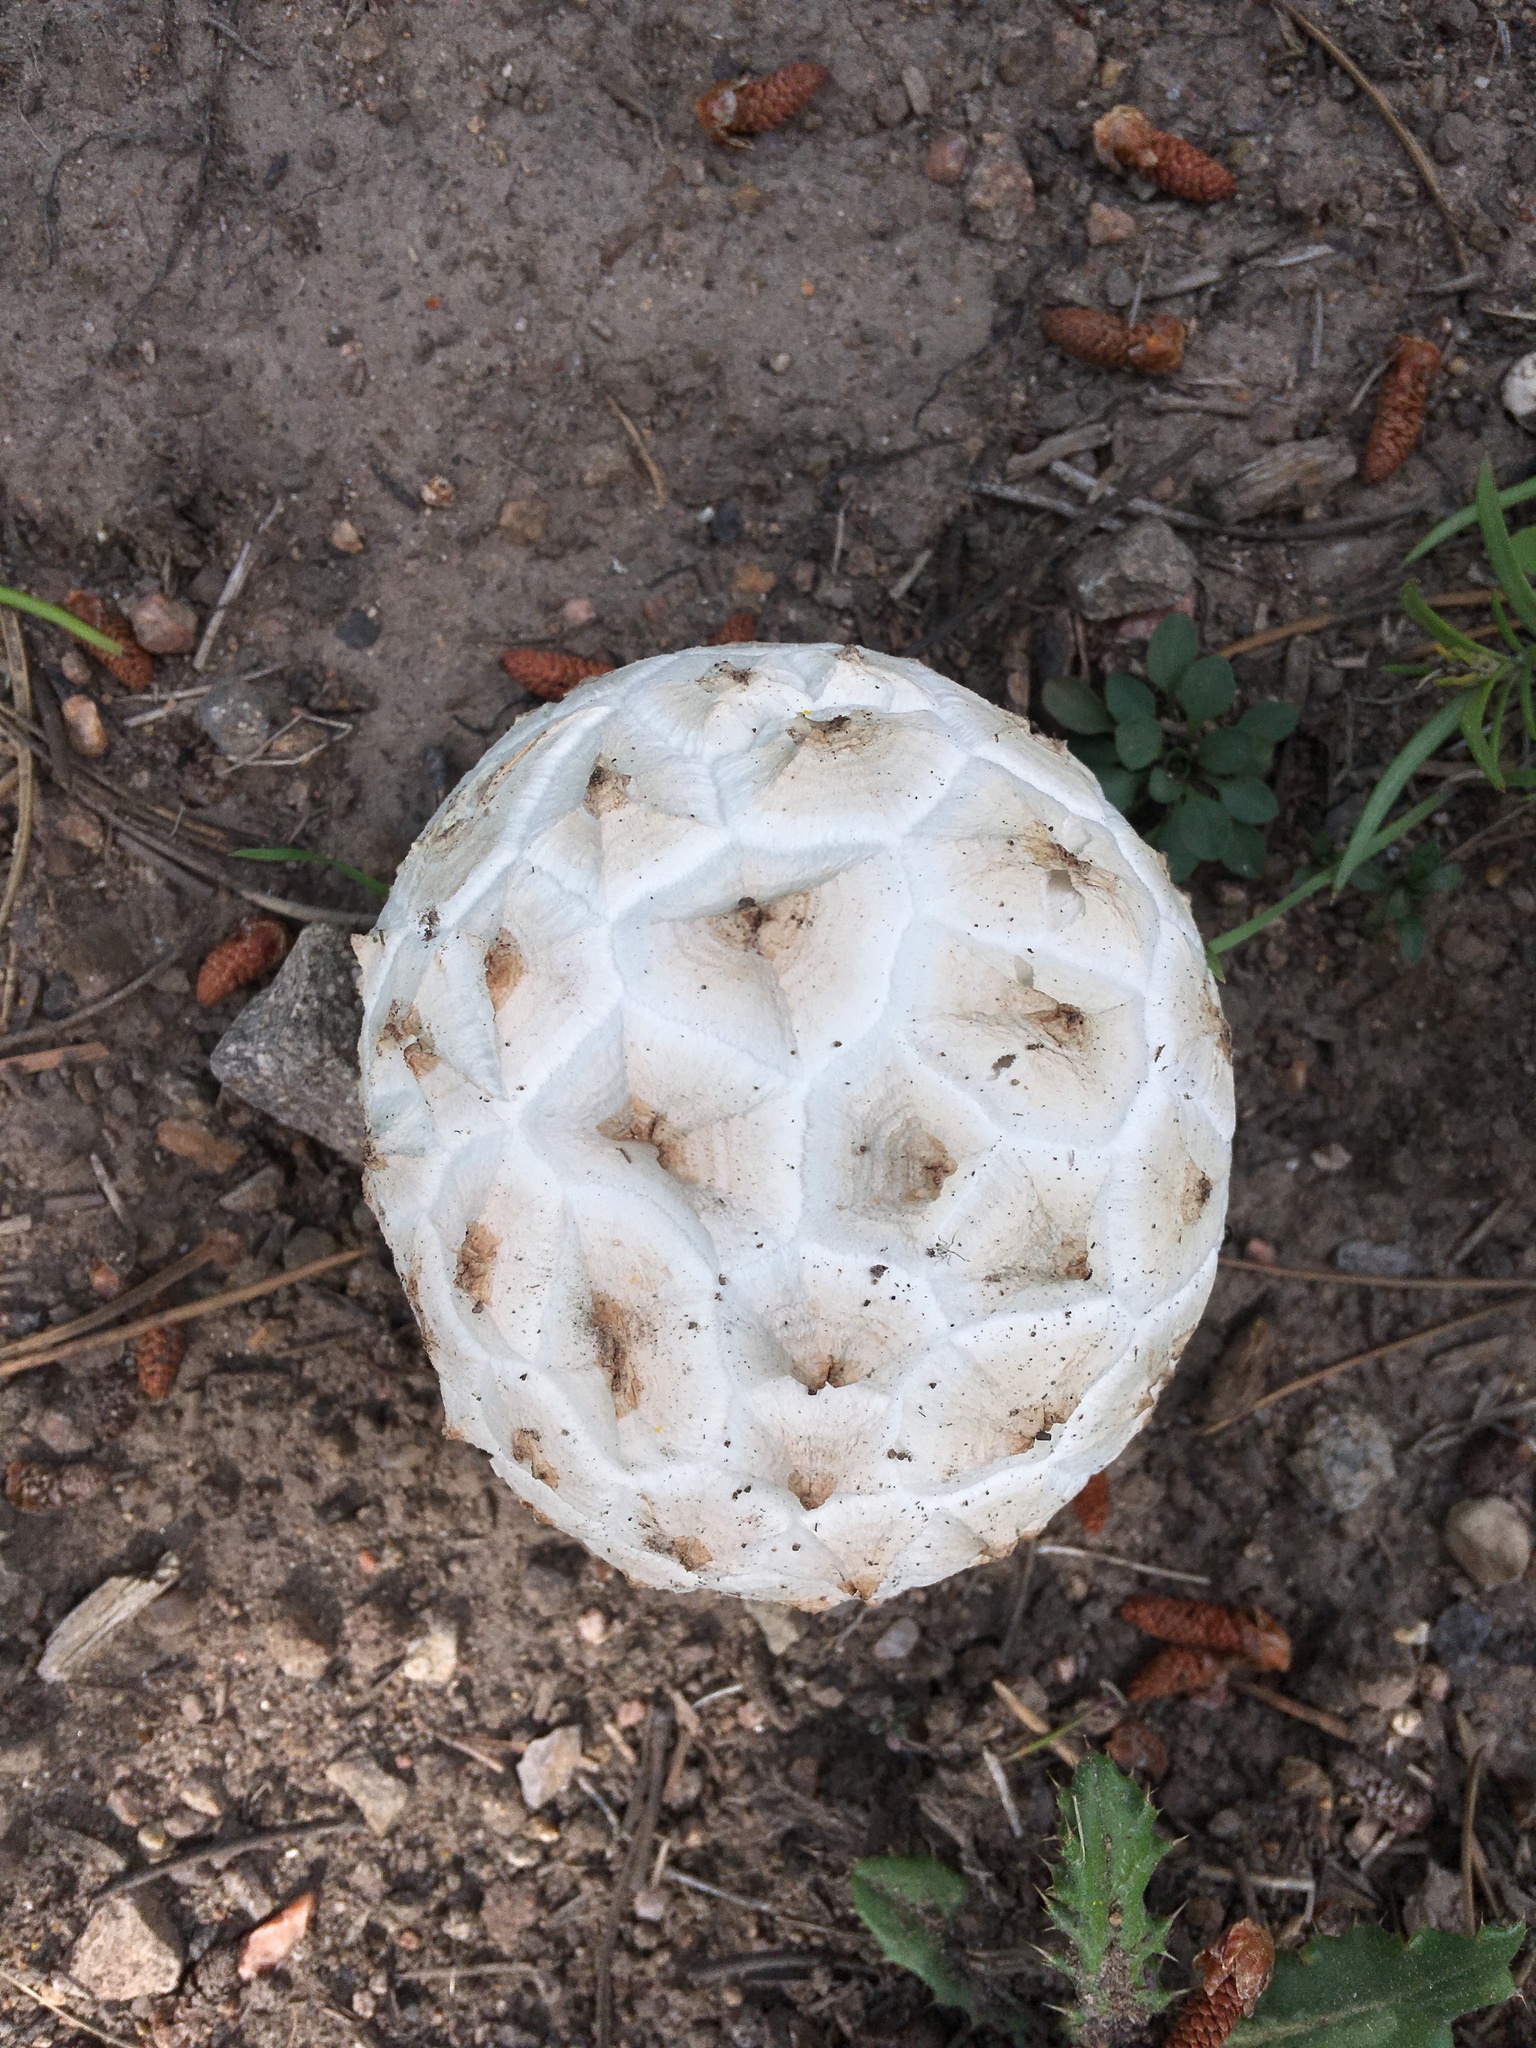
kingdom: Fungi
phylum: Basidiomycota
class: Agaricomycetes
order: Agaricales
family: Lycoperdaceae
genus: Calvatia
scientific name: Calvatia sculpta
